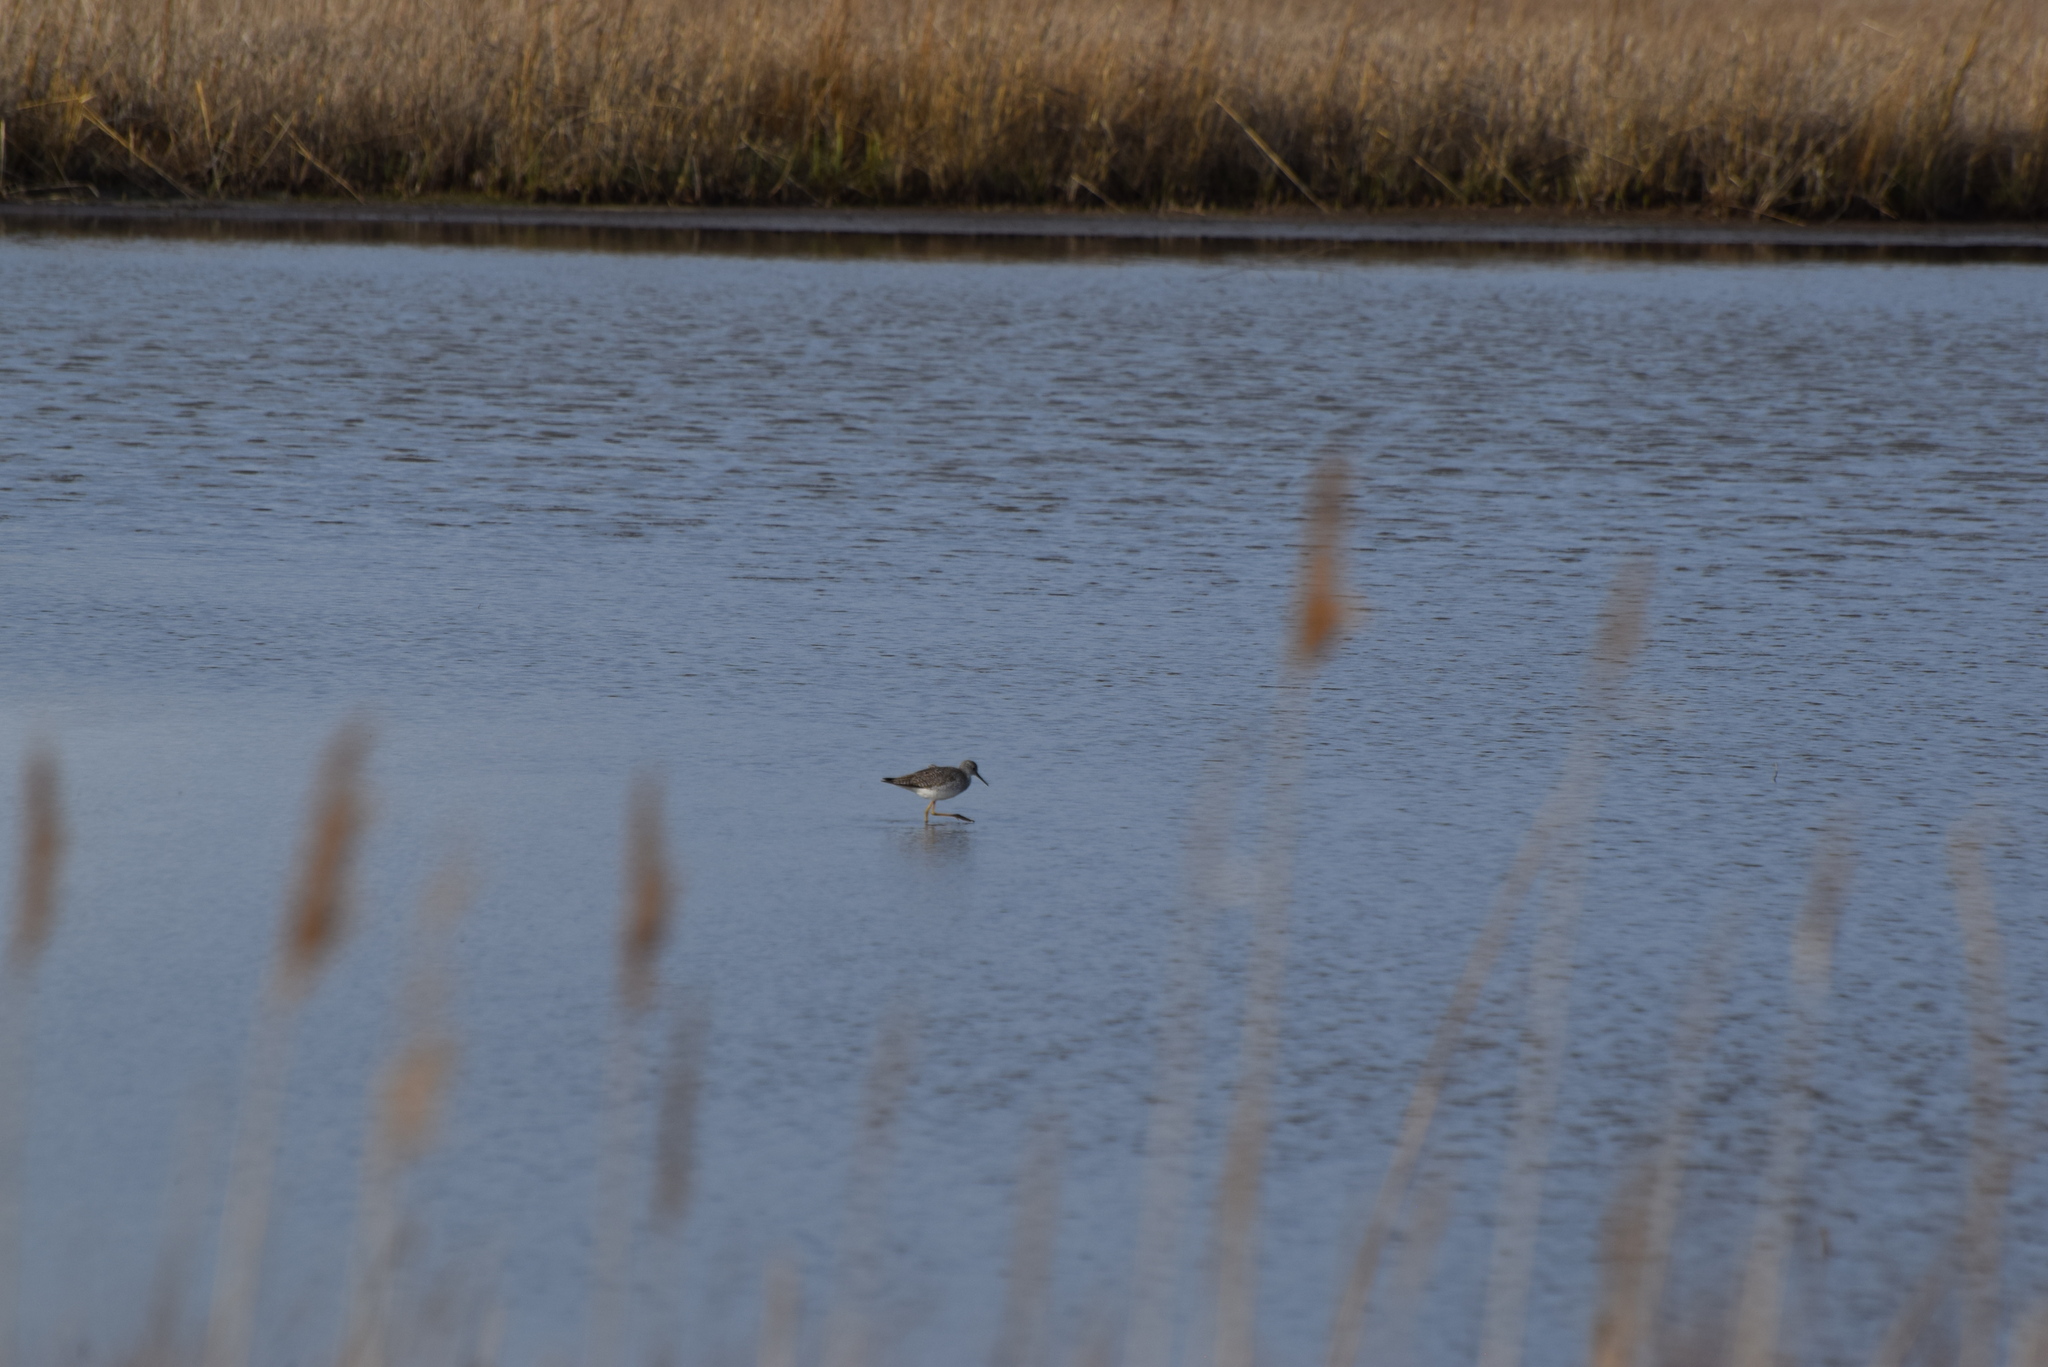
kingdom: Animalia
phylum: Chordata
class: Aves
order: Charadriiformes
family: Scolopacidae
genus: Tringa
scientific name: Tringa flavipes
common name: Lesser yellowlegs
